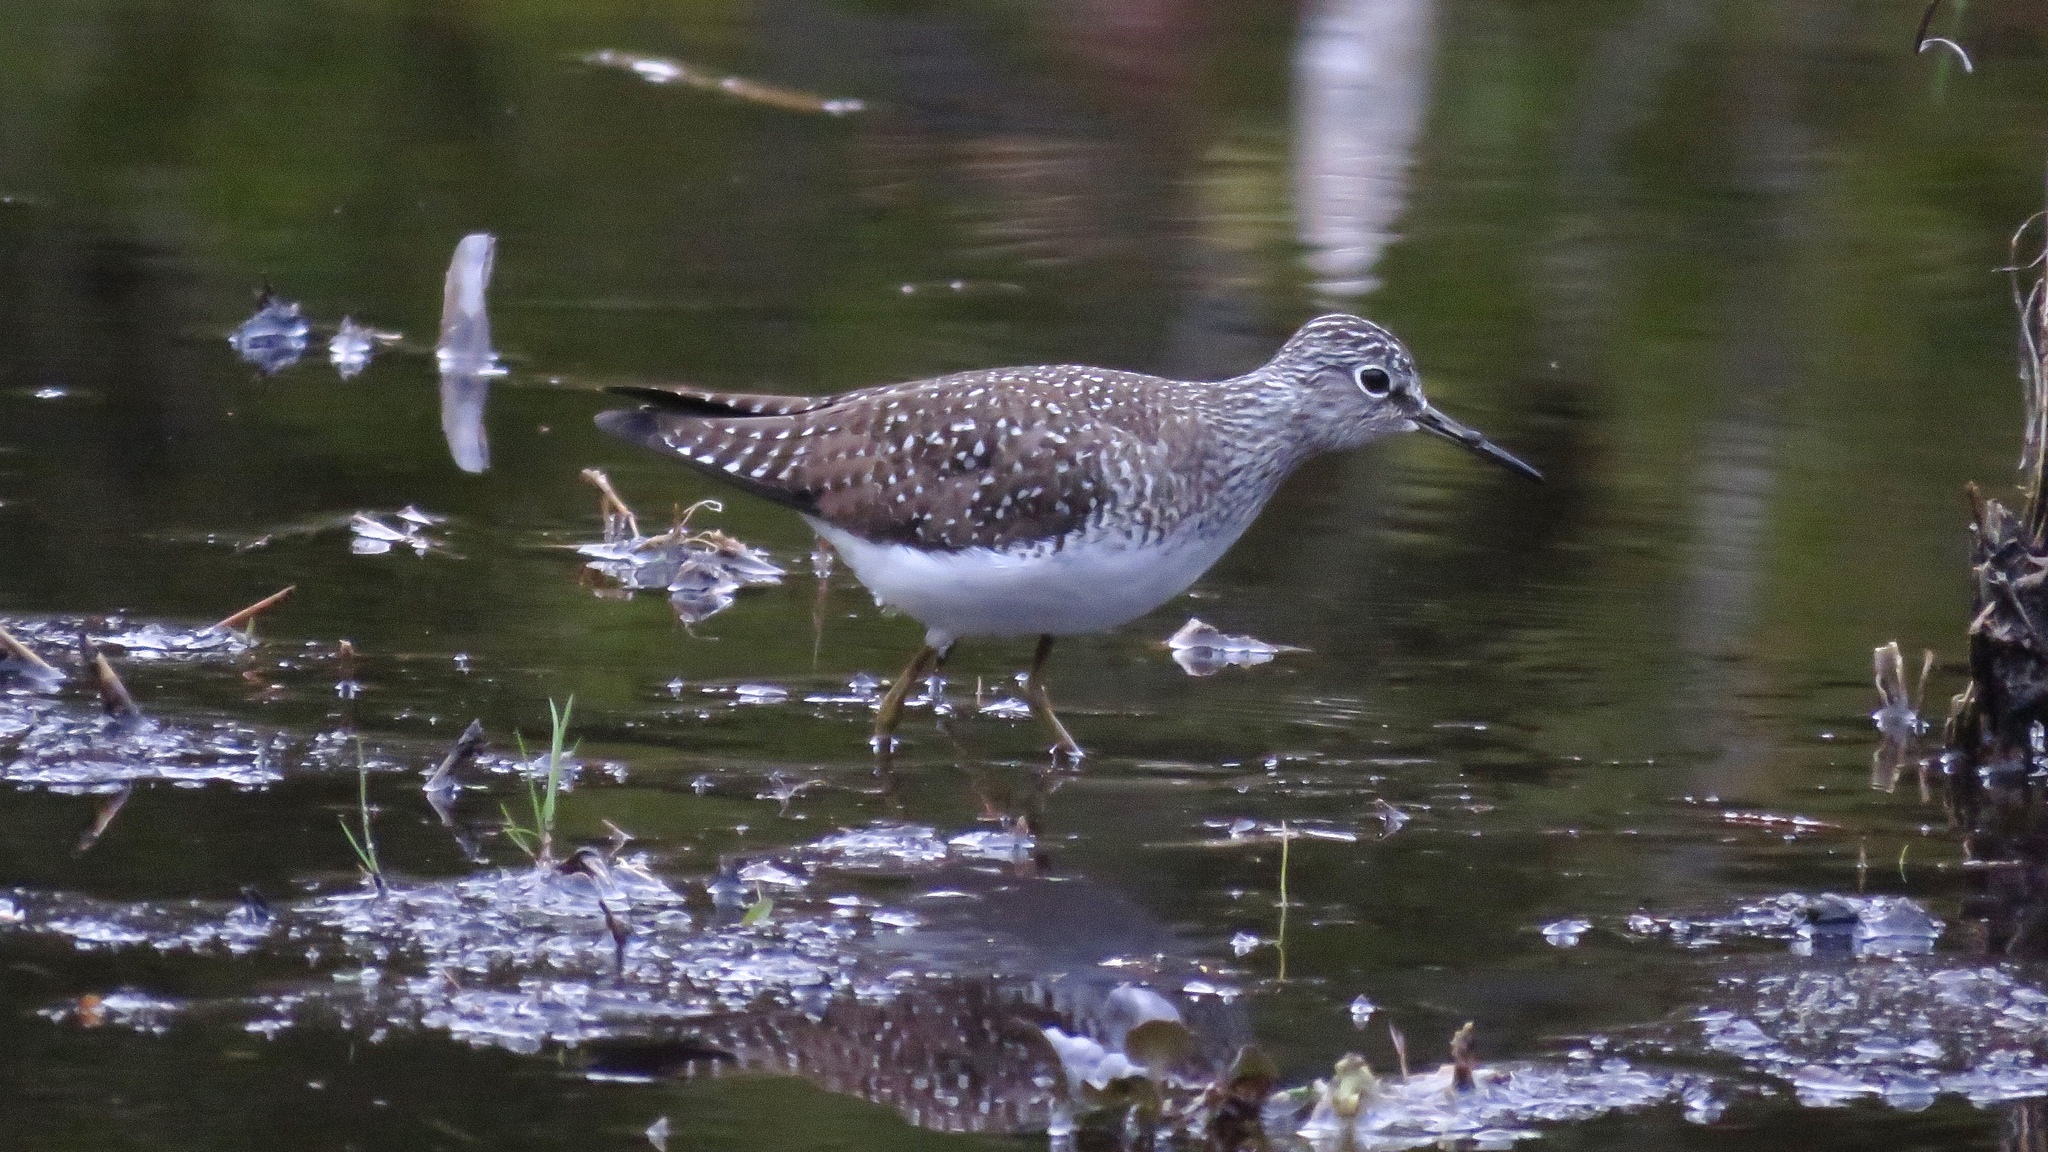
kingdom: Animalia
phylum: Chordata
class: Aves
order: Charadriiformes
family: Scolopacidae
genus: Tringa
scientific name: Tringa solitaria
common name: Solitary sandpiper
